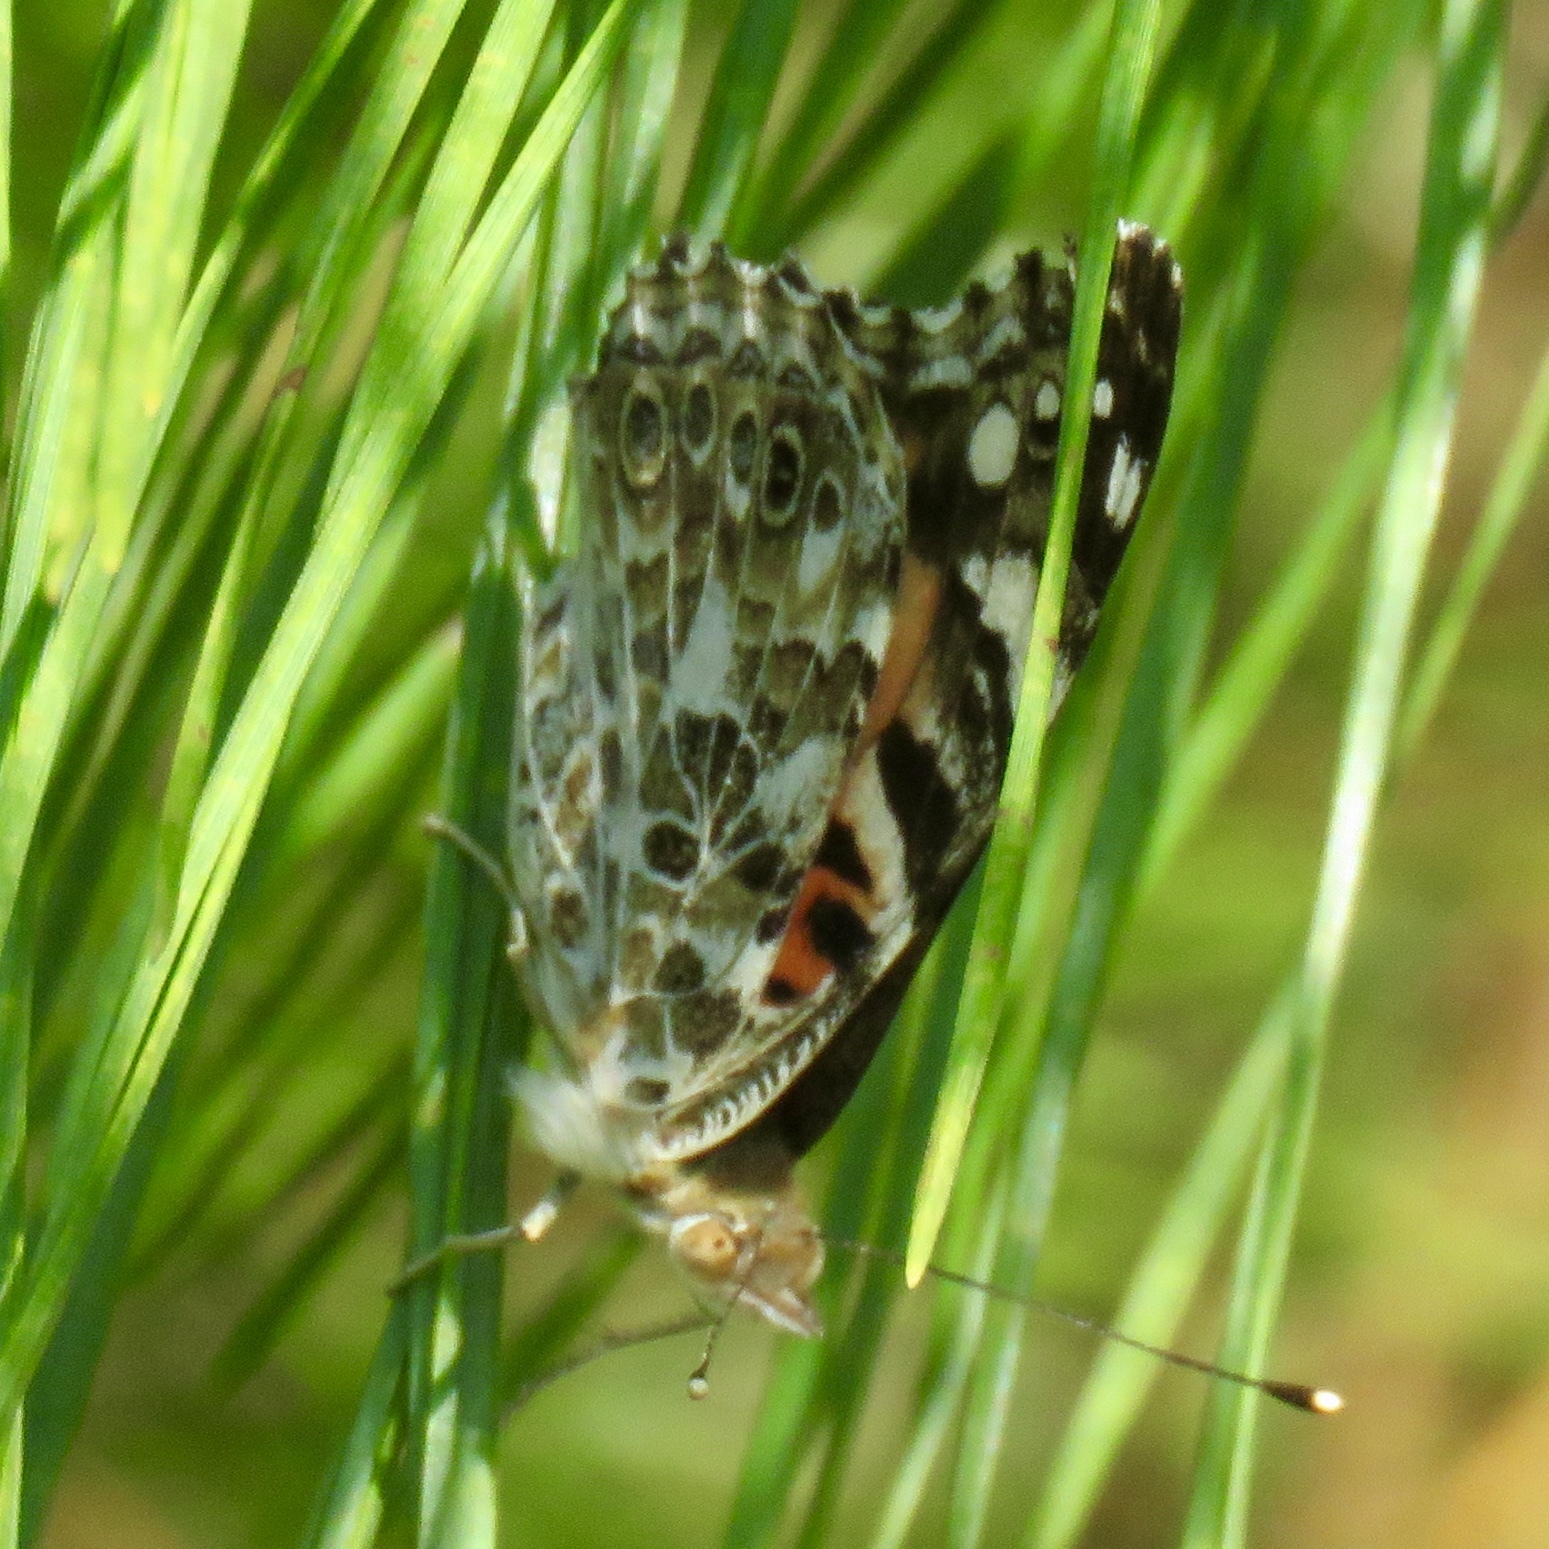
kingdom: Animalia
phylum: Arthropoda
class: Insecta
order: Lepidoptera
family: Nymphalidae
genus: Vanessa
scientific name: Vanessa cardui
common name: Painted lady
